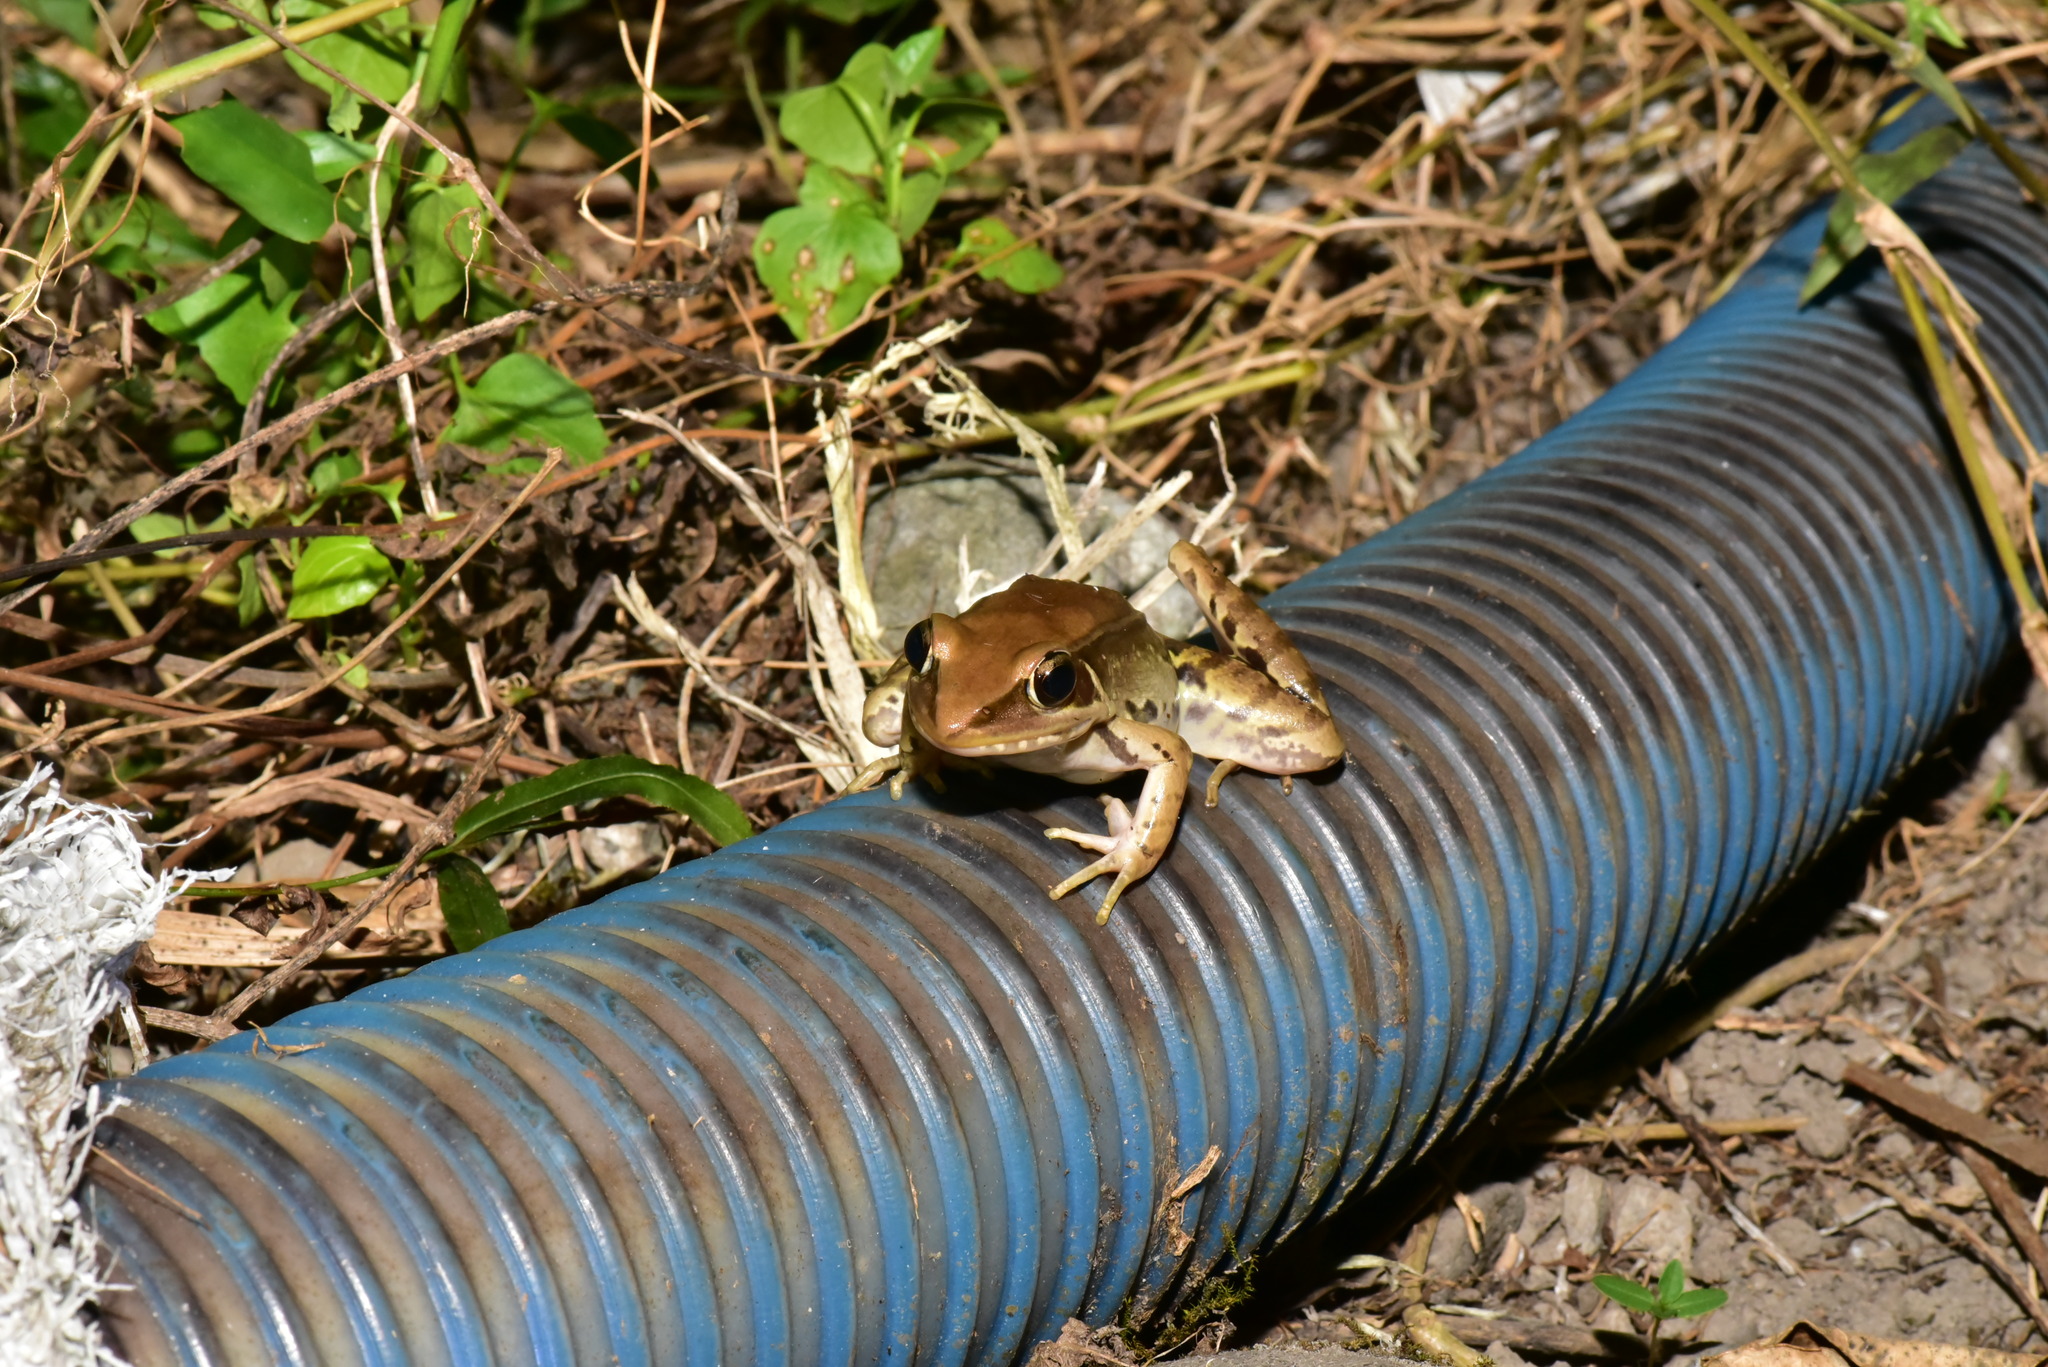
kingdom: Animalia
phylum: Chordata
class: Amphibia
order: Anura
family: Ranidae
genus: Sylvirana
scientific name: Sylvirana guentheri
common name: Guenther's amoy frog
